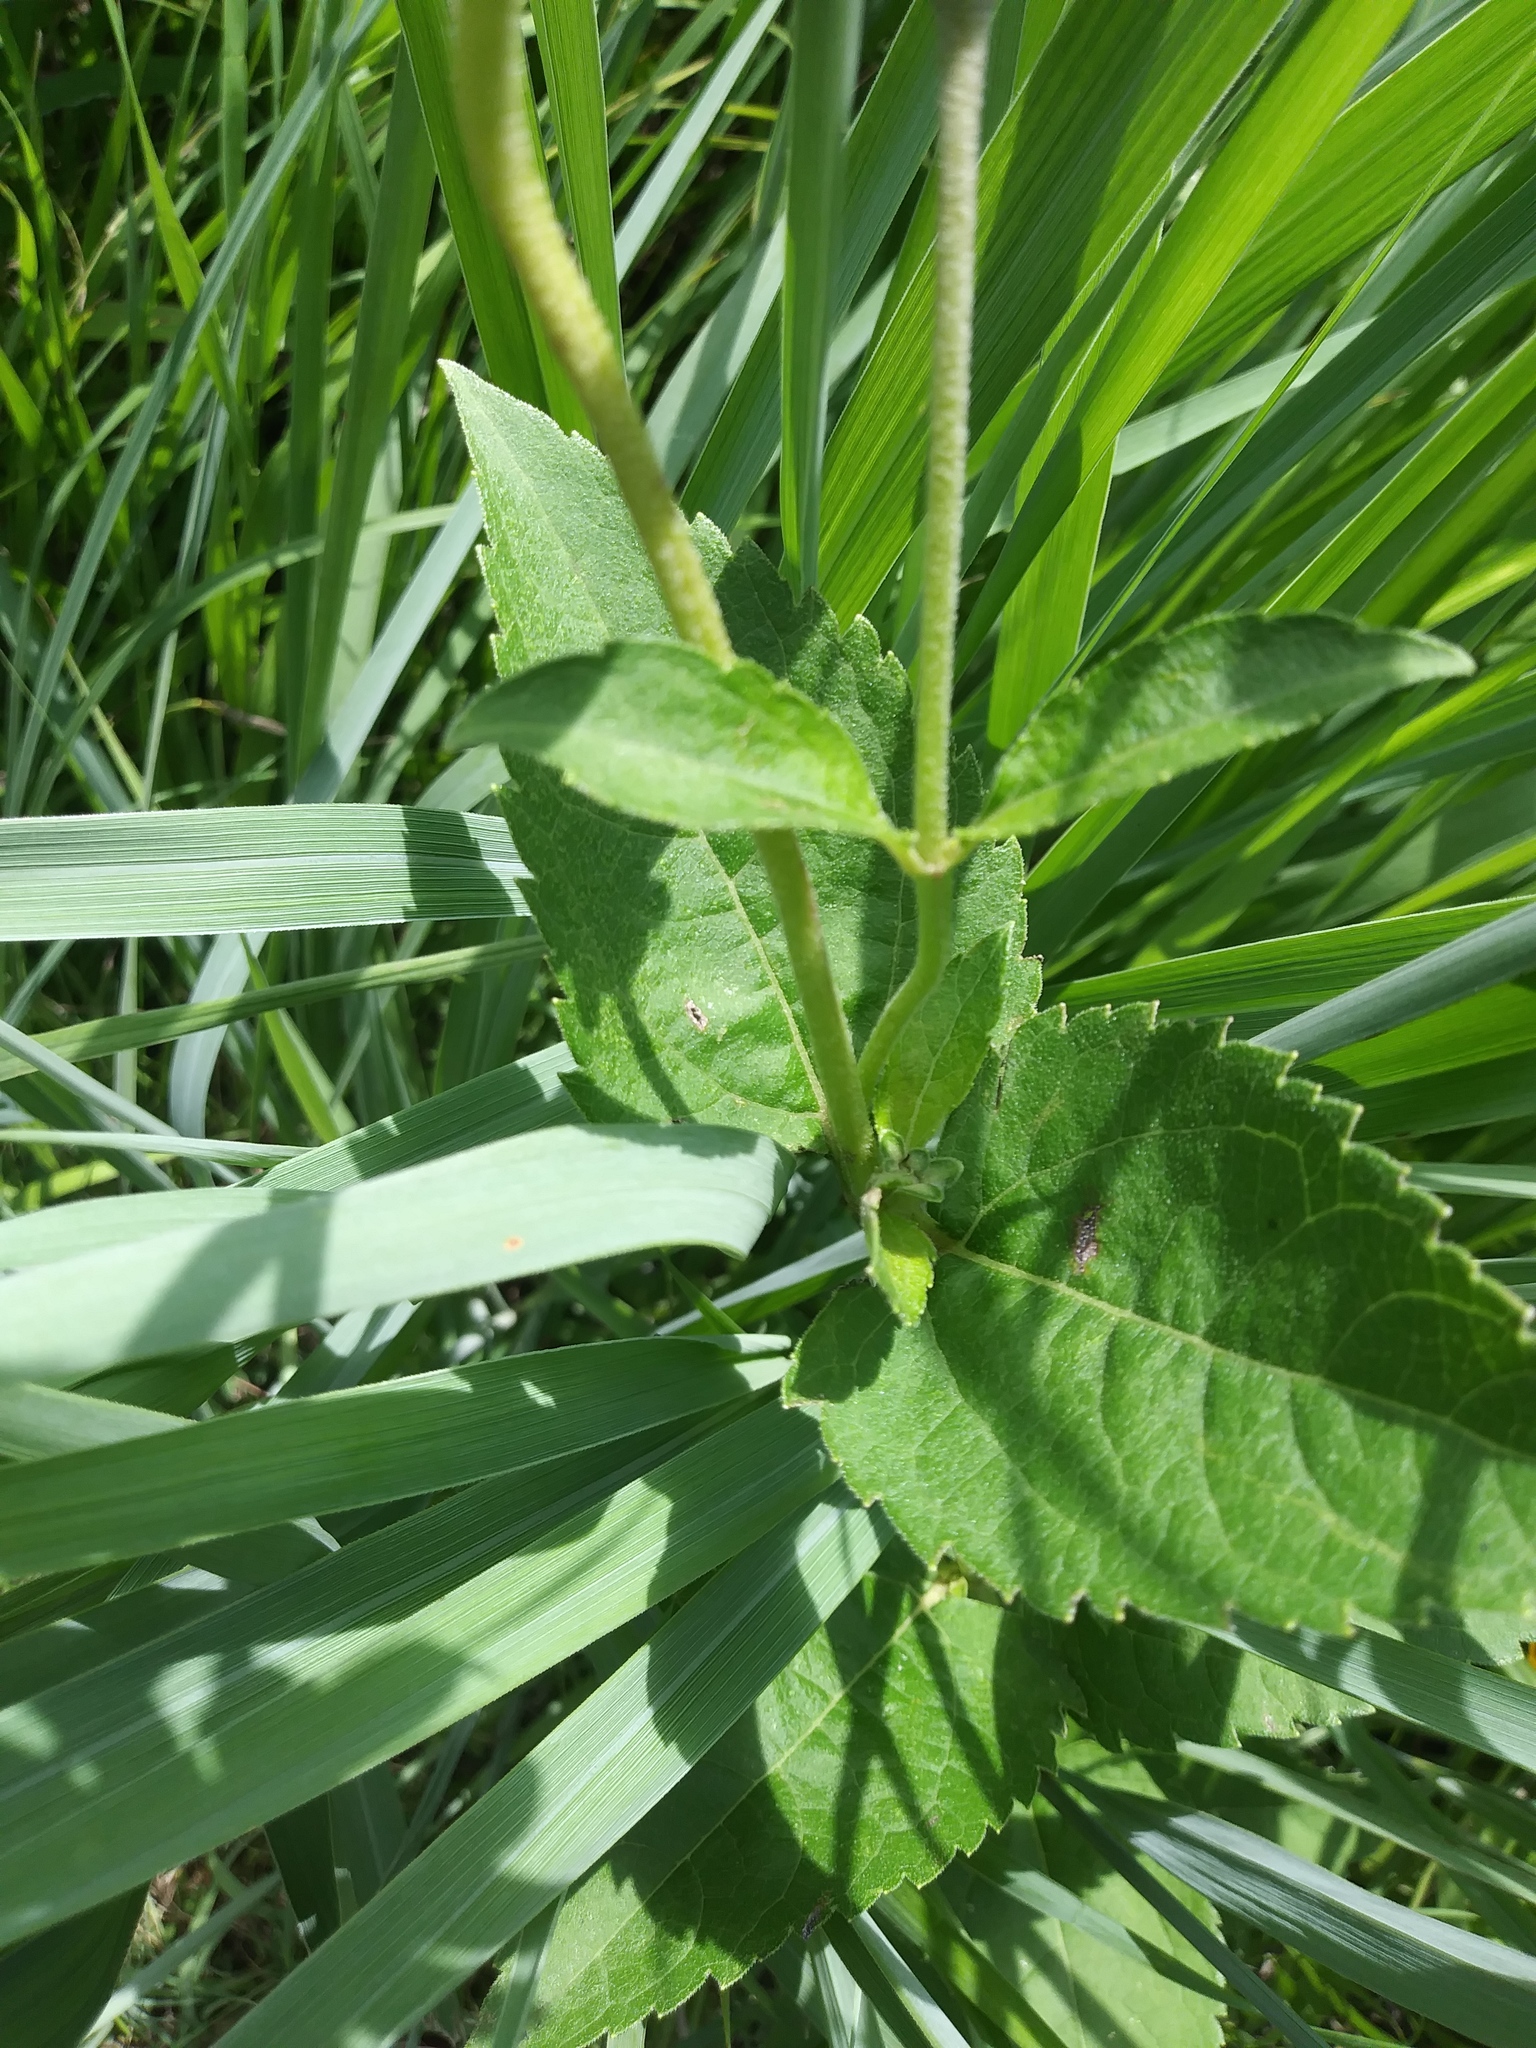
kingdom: Plantae
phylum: Tracheophyta
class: Magnoliopsida
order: Asterales
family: Asteraceae
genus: Heliopsis
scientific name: Heliopsis helianthoides
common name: False sunflower
